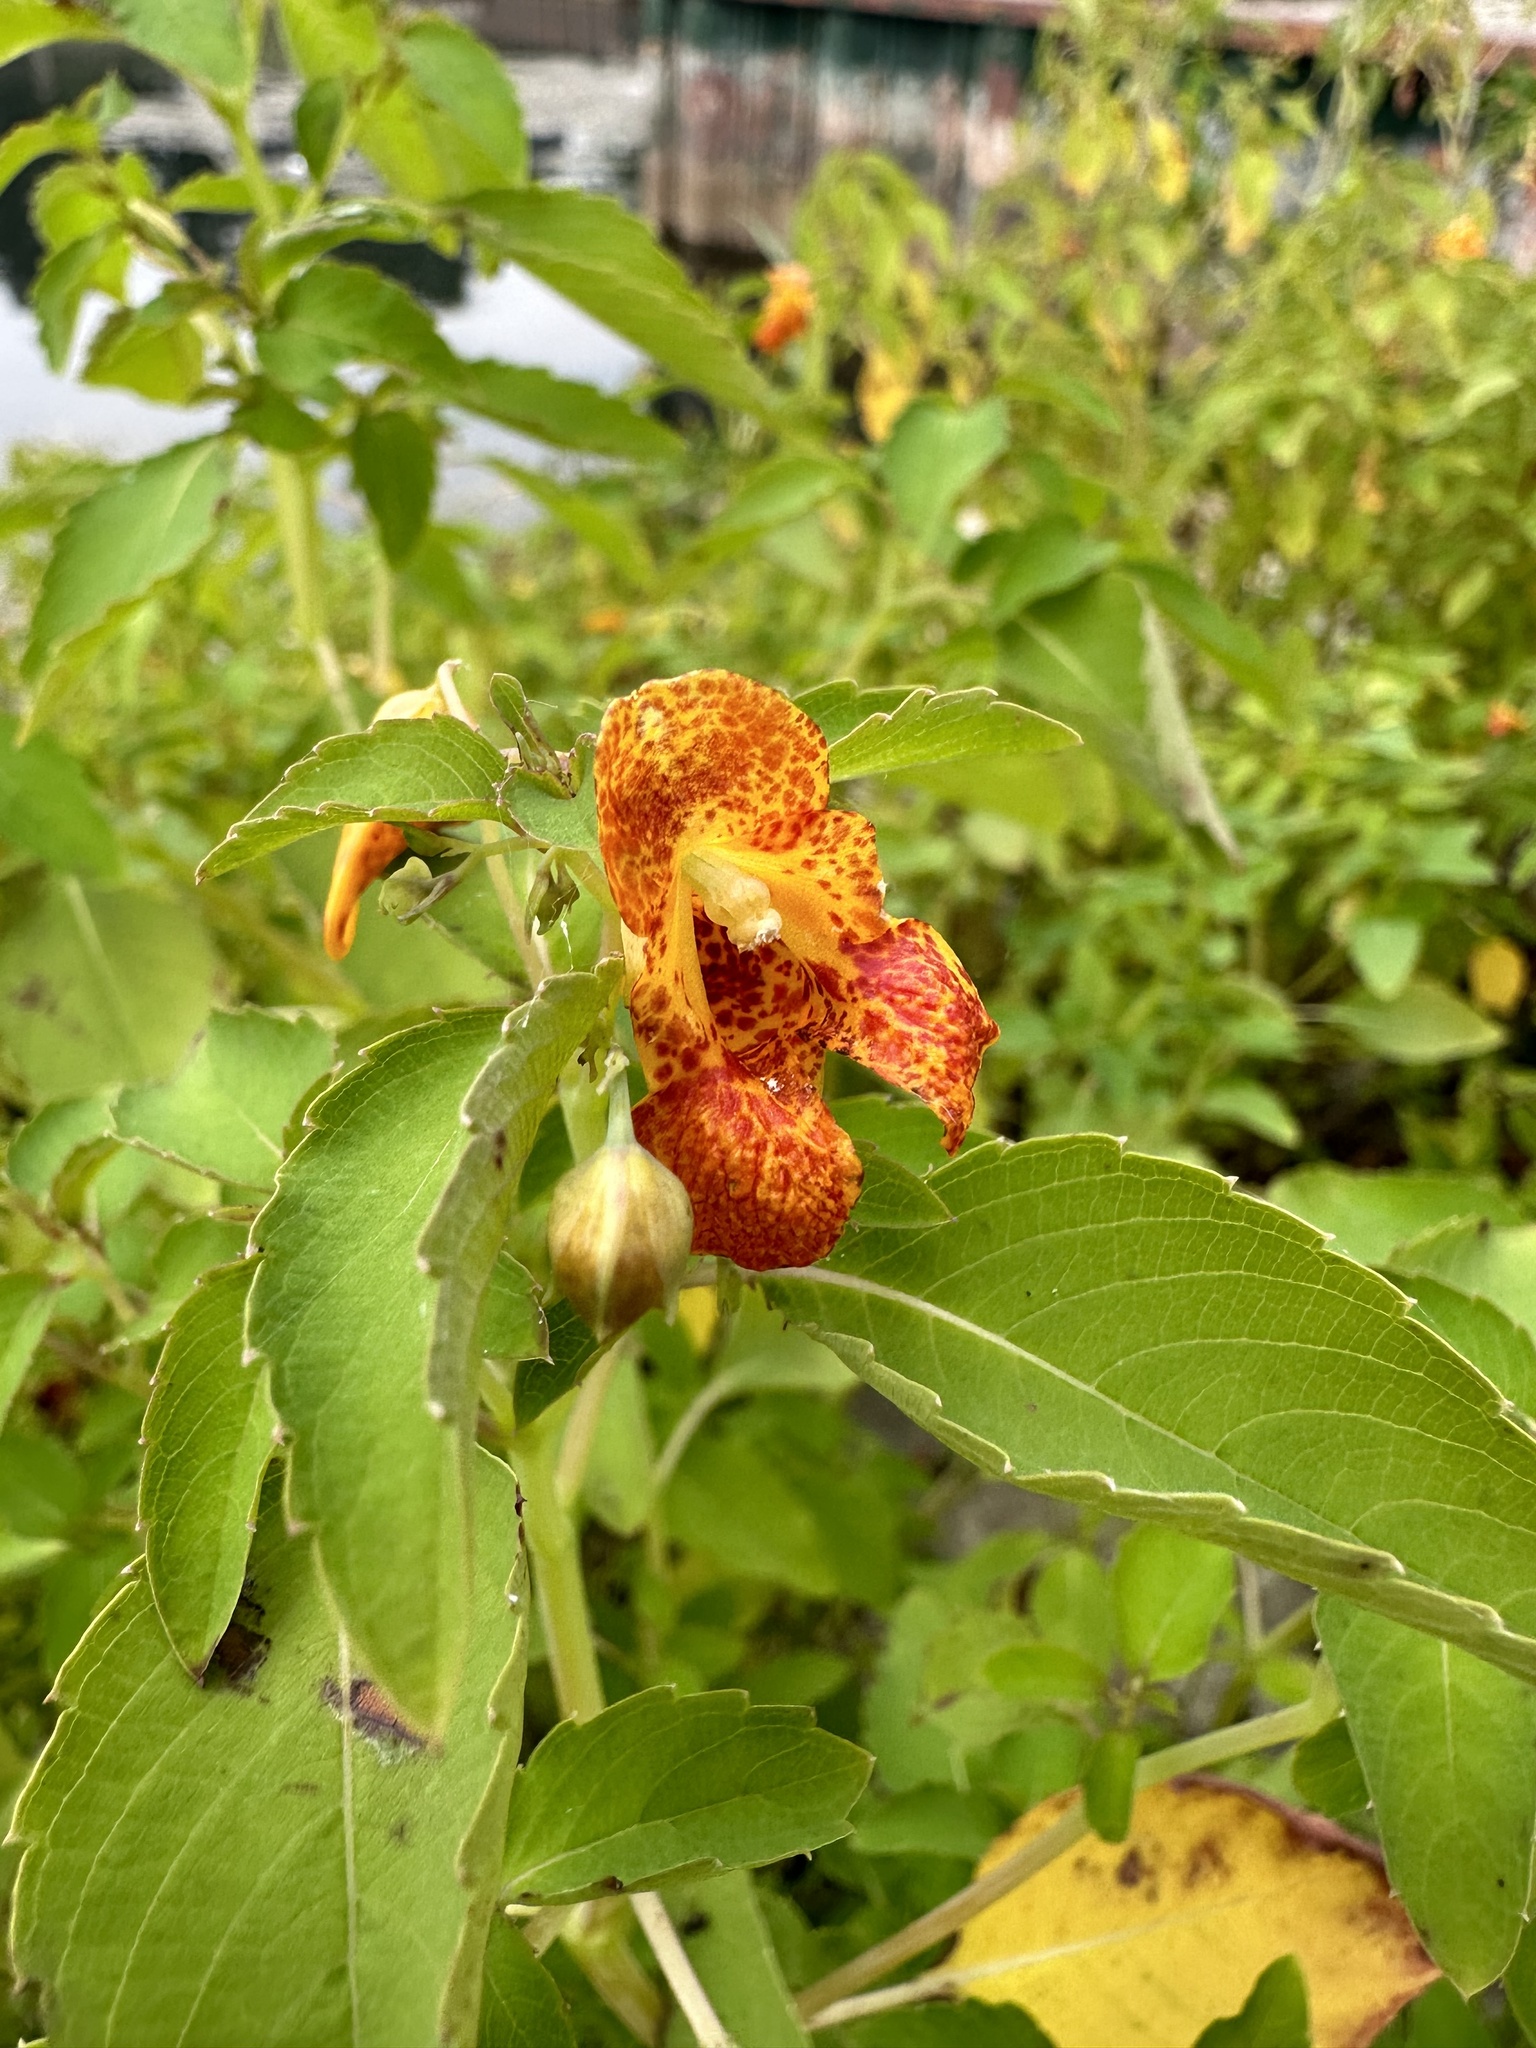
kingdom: Plantae
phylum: Tracheophyta
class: Magnoliopsida
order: Ericales
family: Balsaminaceae
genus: Impatiens
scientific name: Impatiens capensis
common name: Orange balsam
